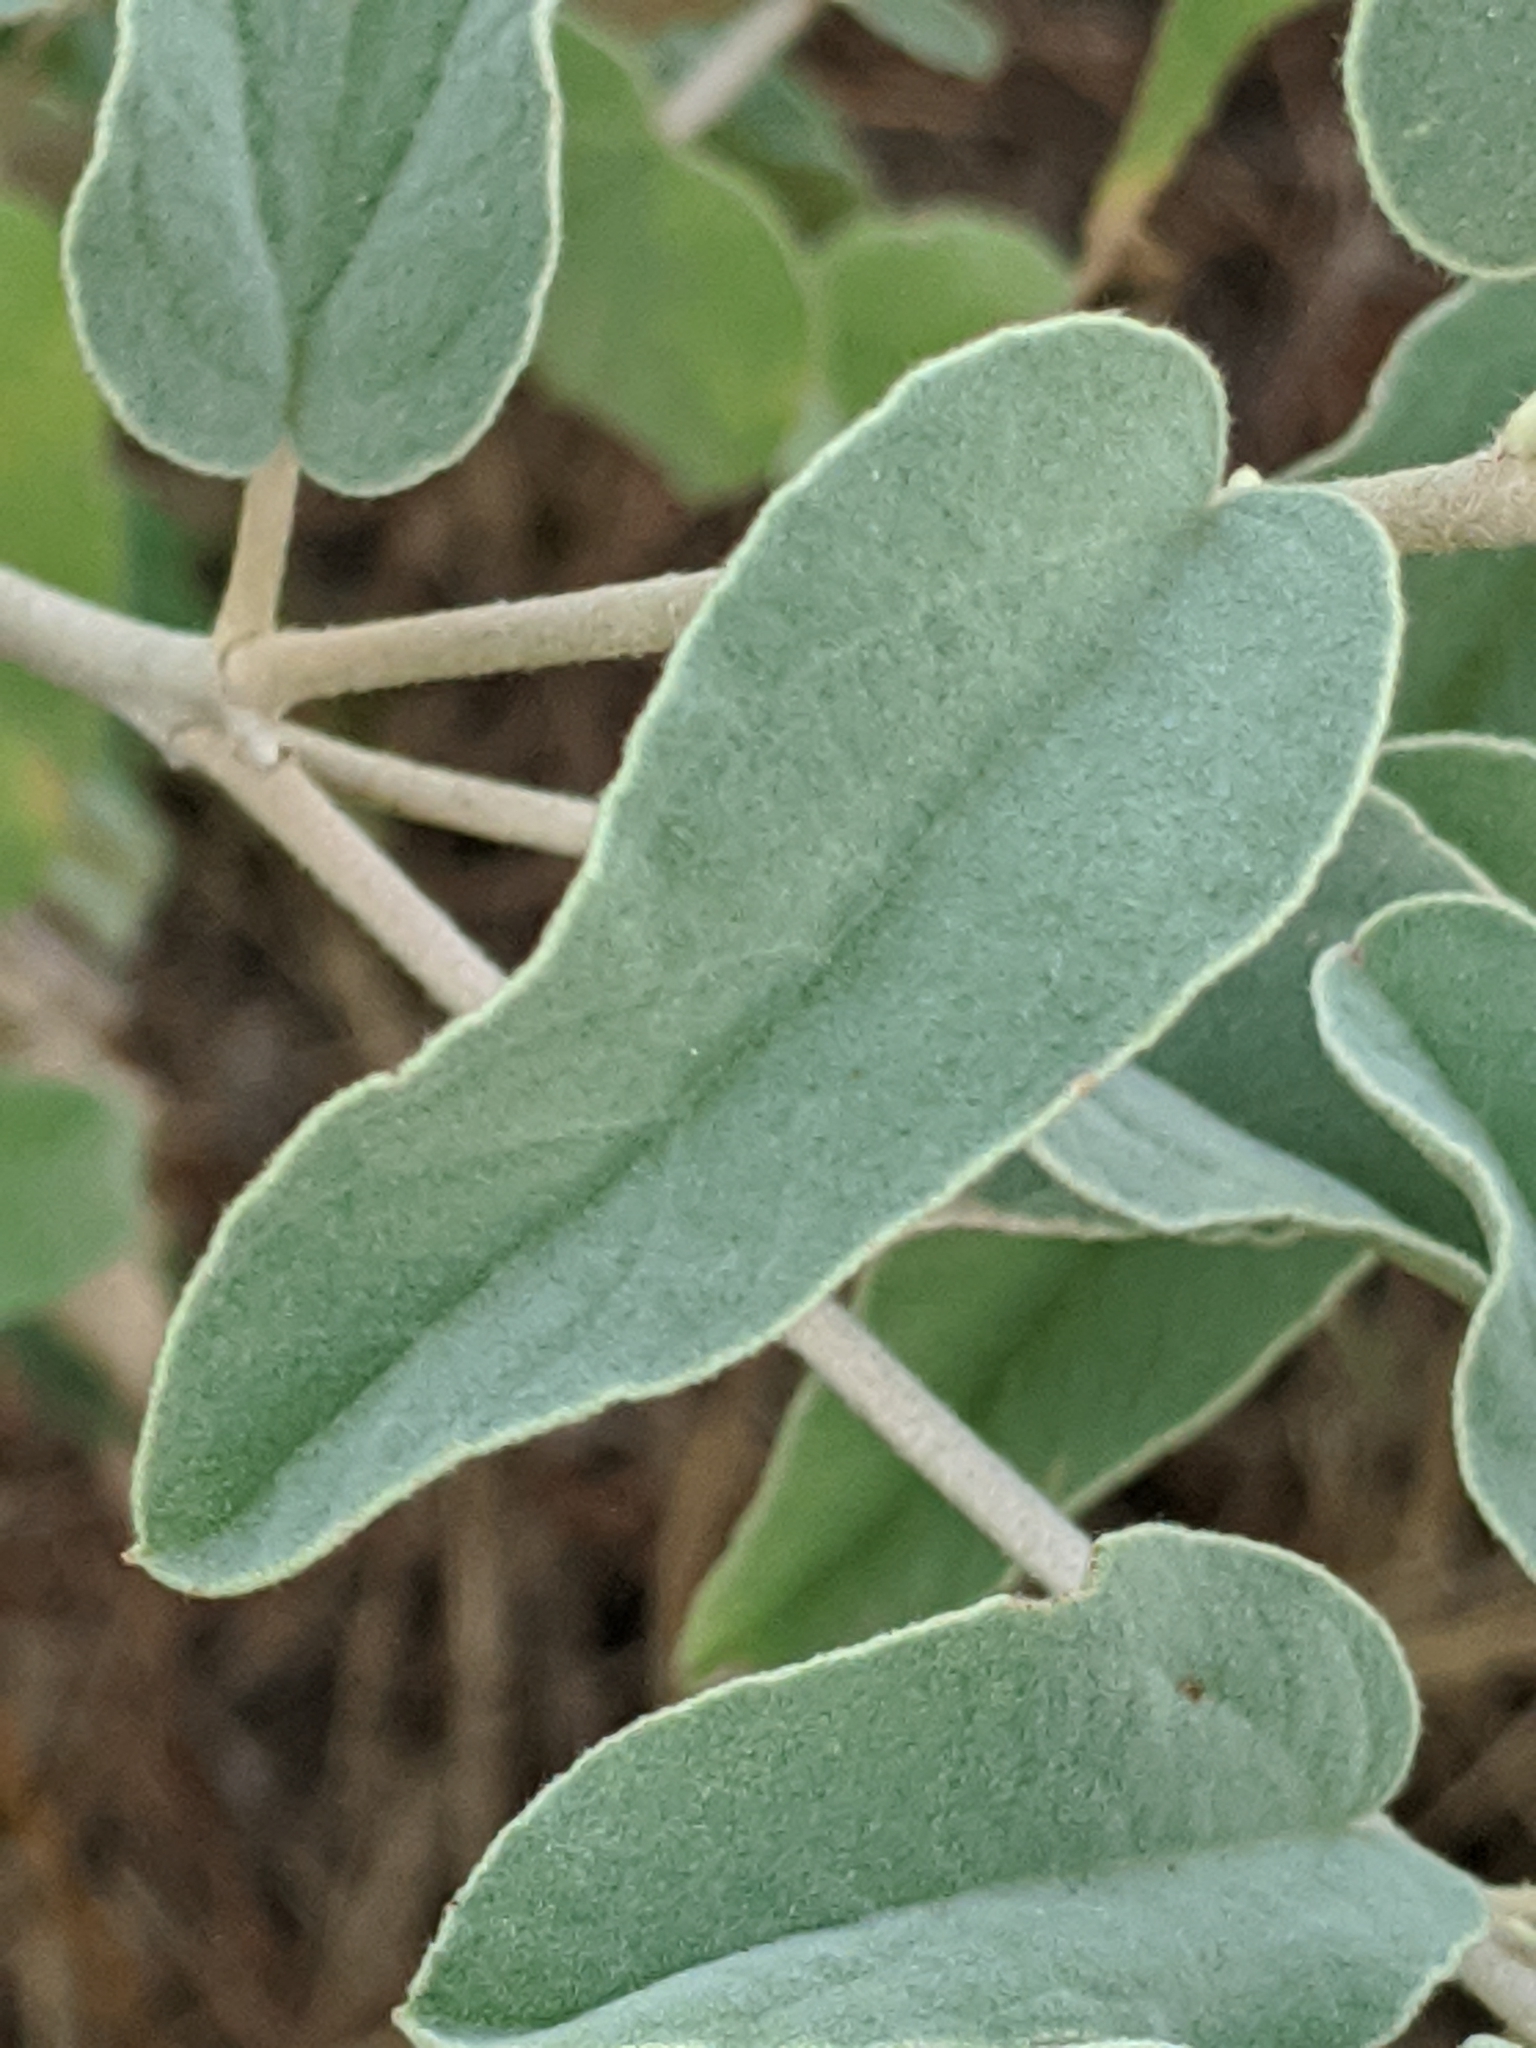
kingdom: Plantae
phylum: Tracheophyta
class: Magnoliopsida
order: Malpighiales
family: Euphorbiaceae
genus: Croton
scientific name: Croton heptalon
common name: Woolly croton
